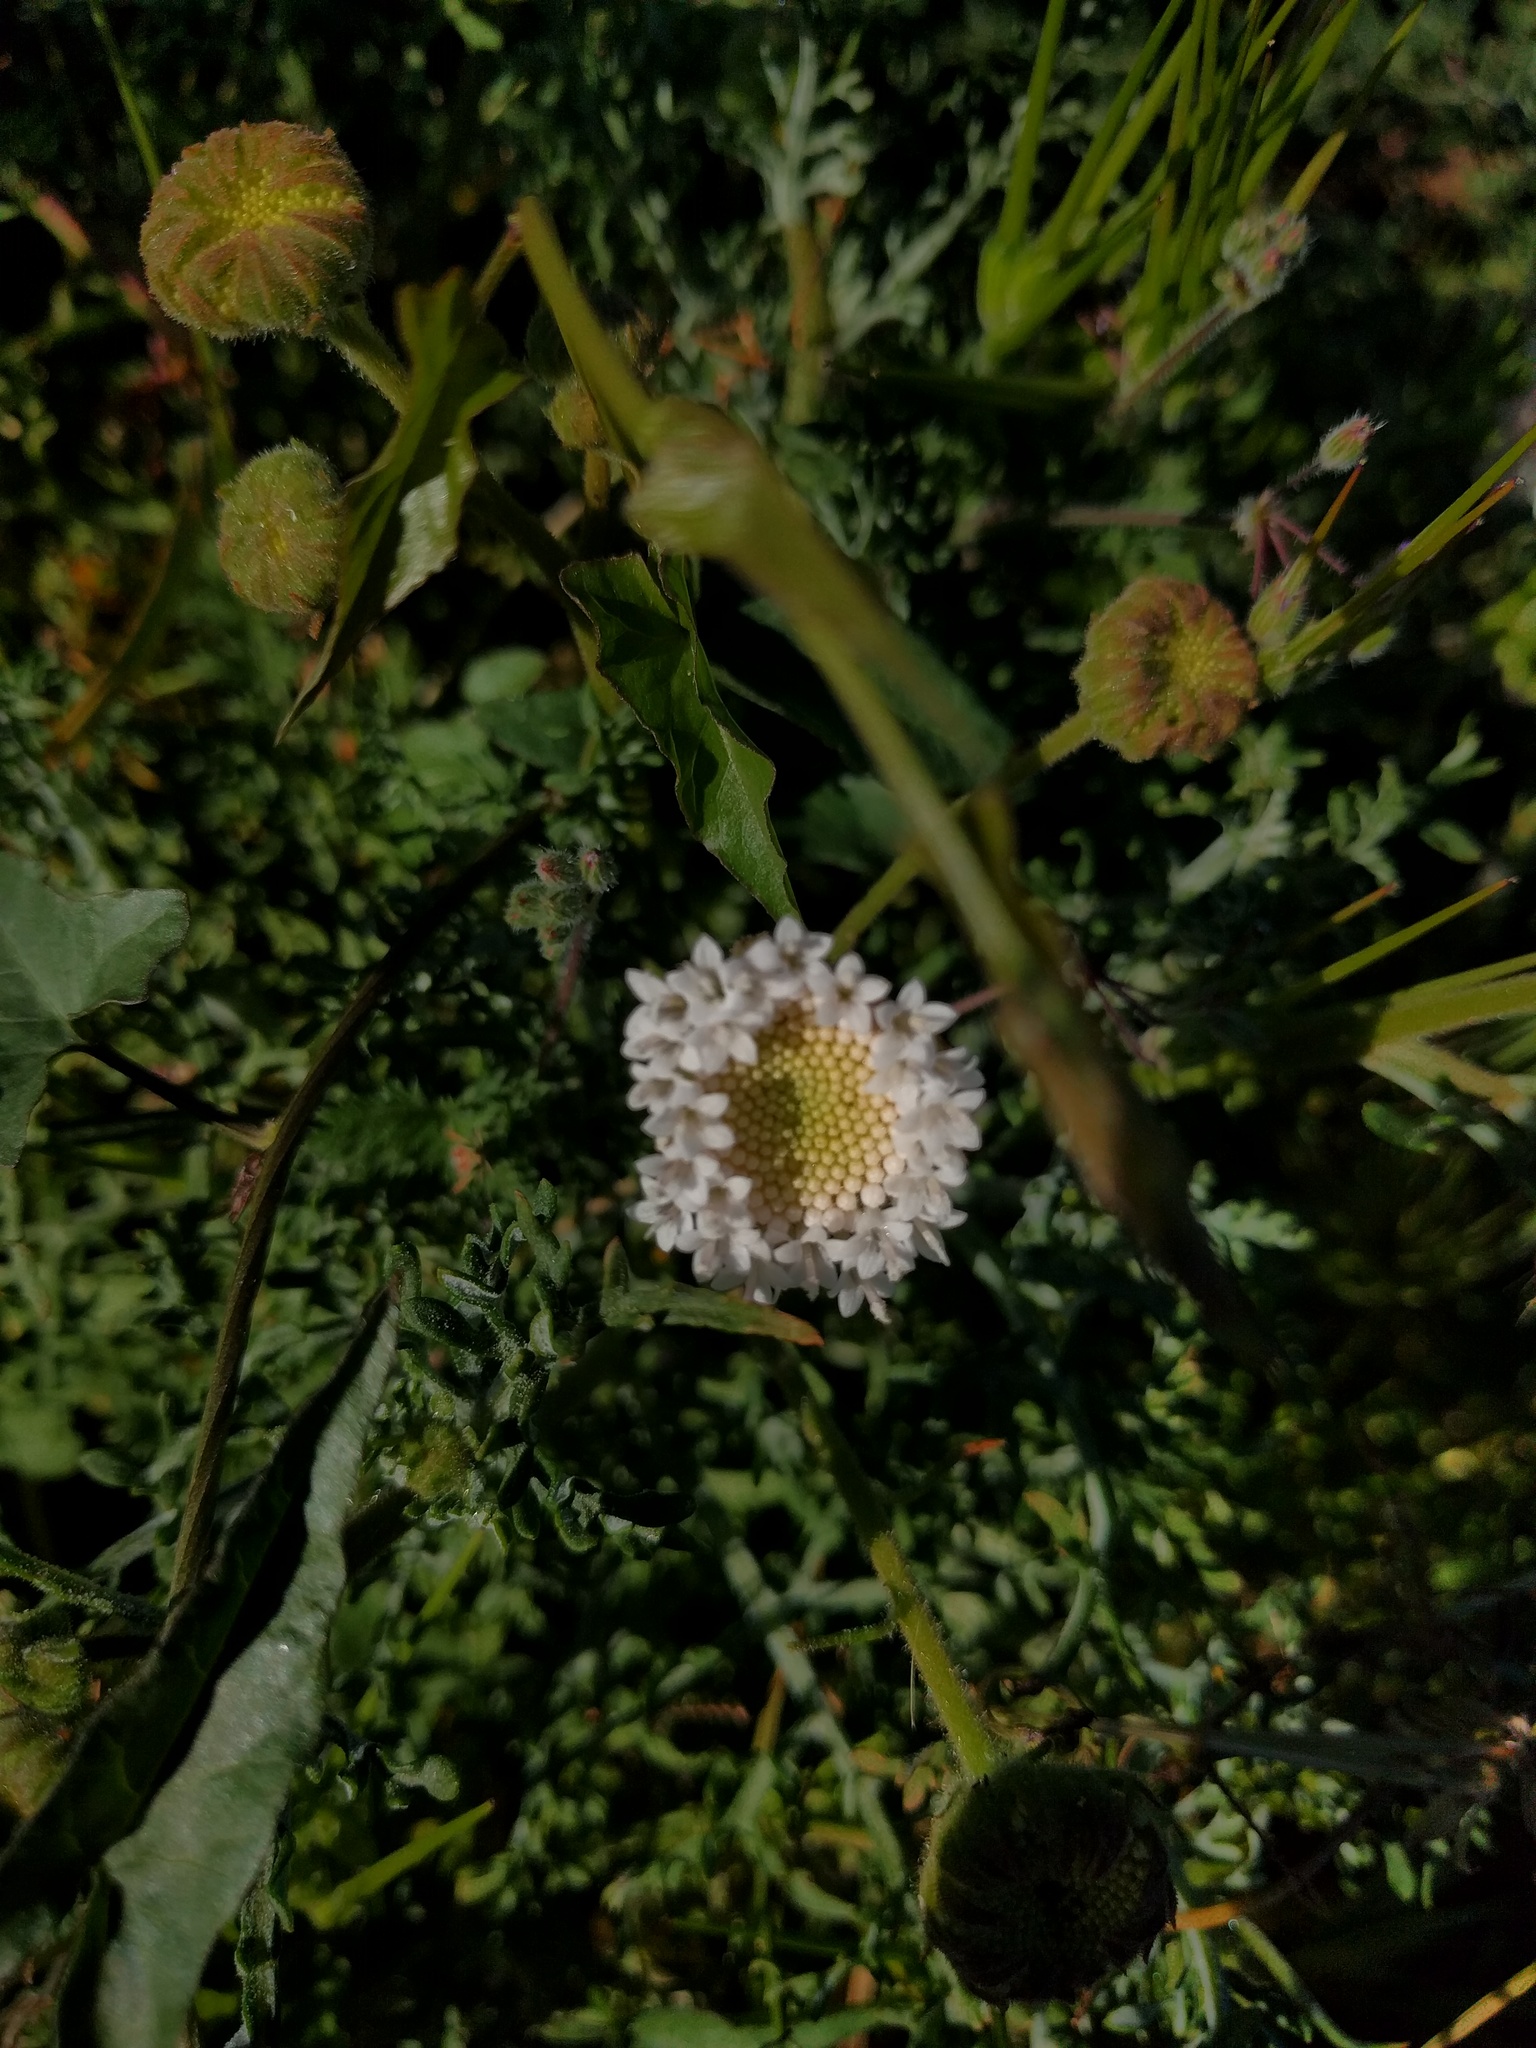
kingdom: Plantae
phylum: Tracheophyta
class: Magnoliopsida
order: Asterales
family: Asteraceae
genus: Chaenactis
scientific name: Chaenactis artemisiifolia
